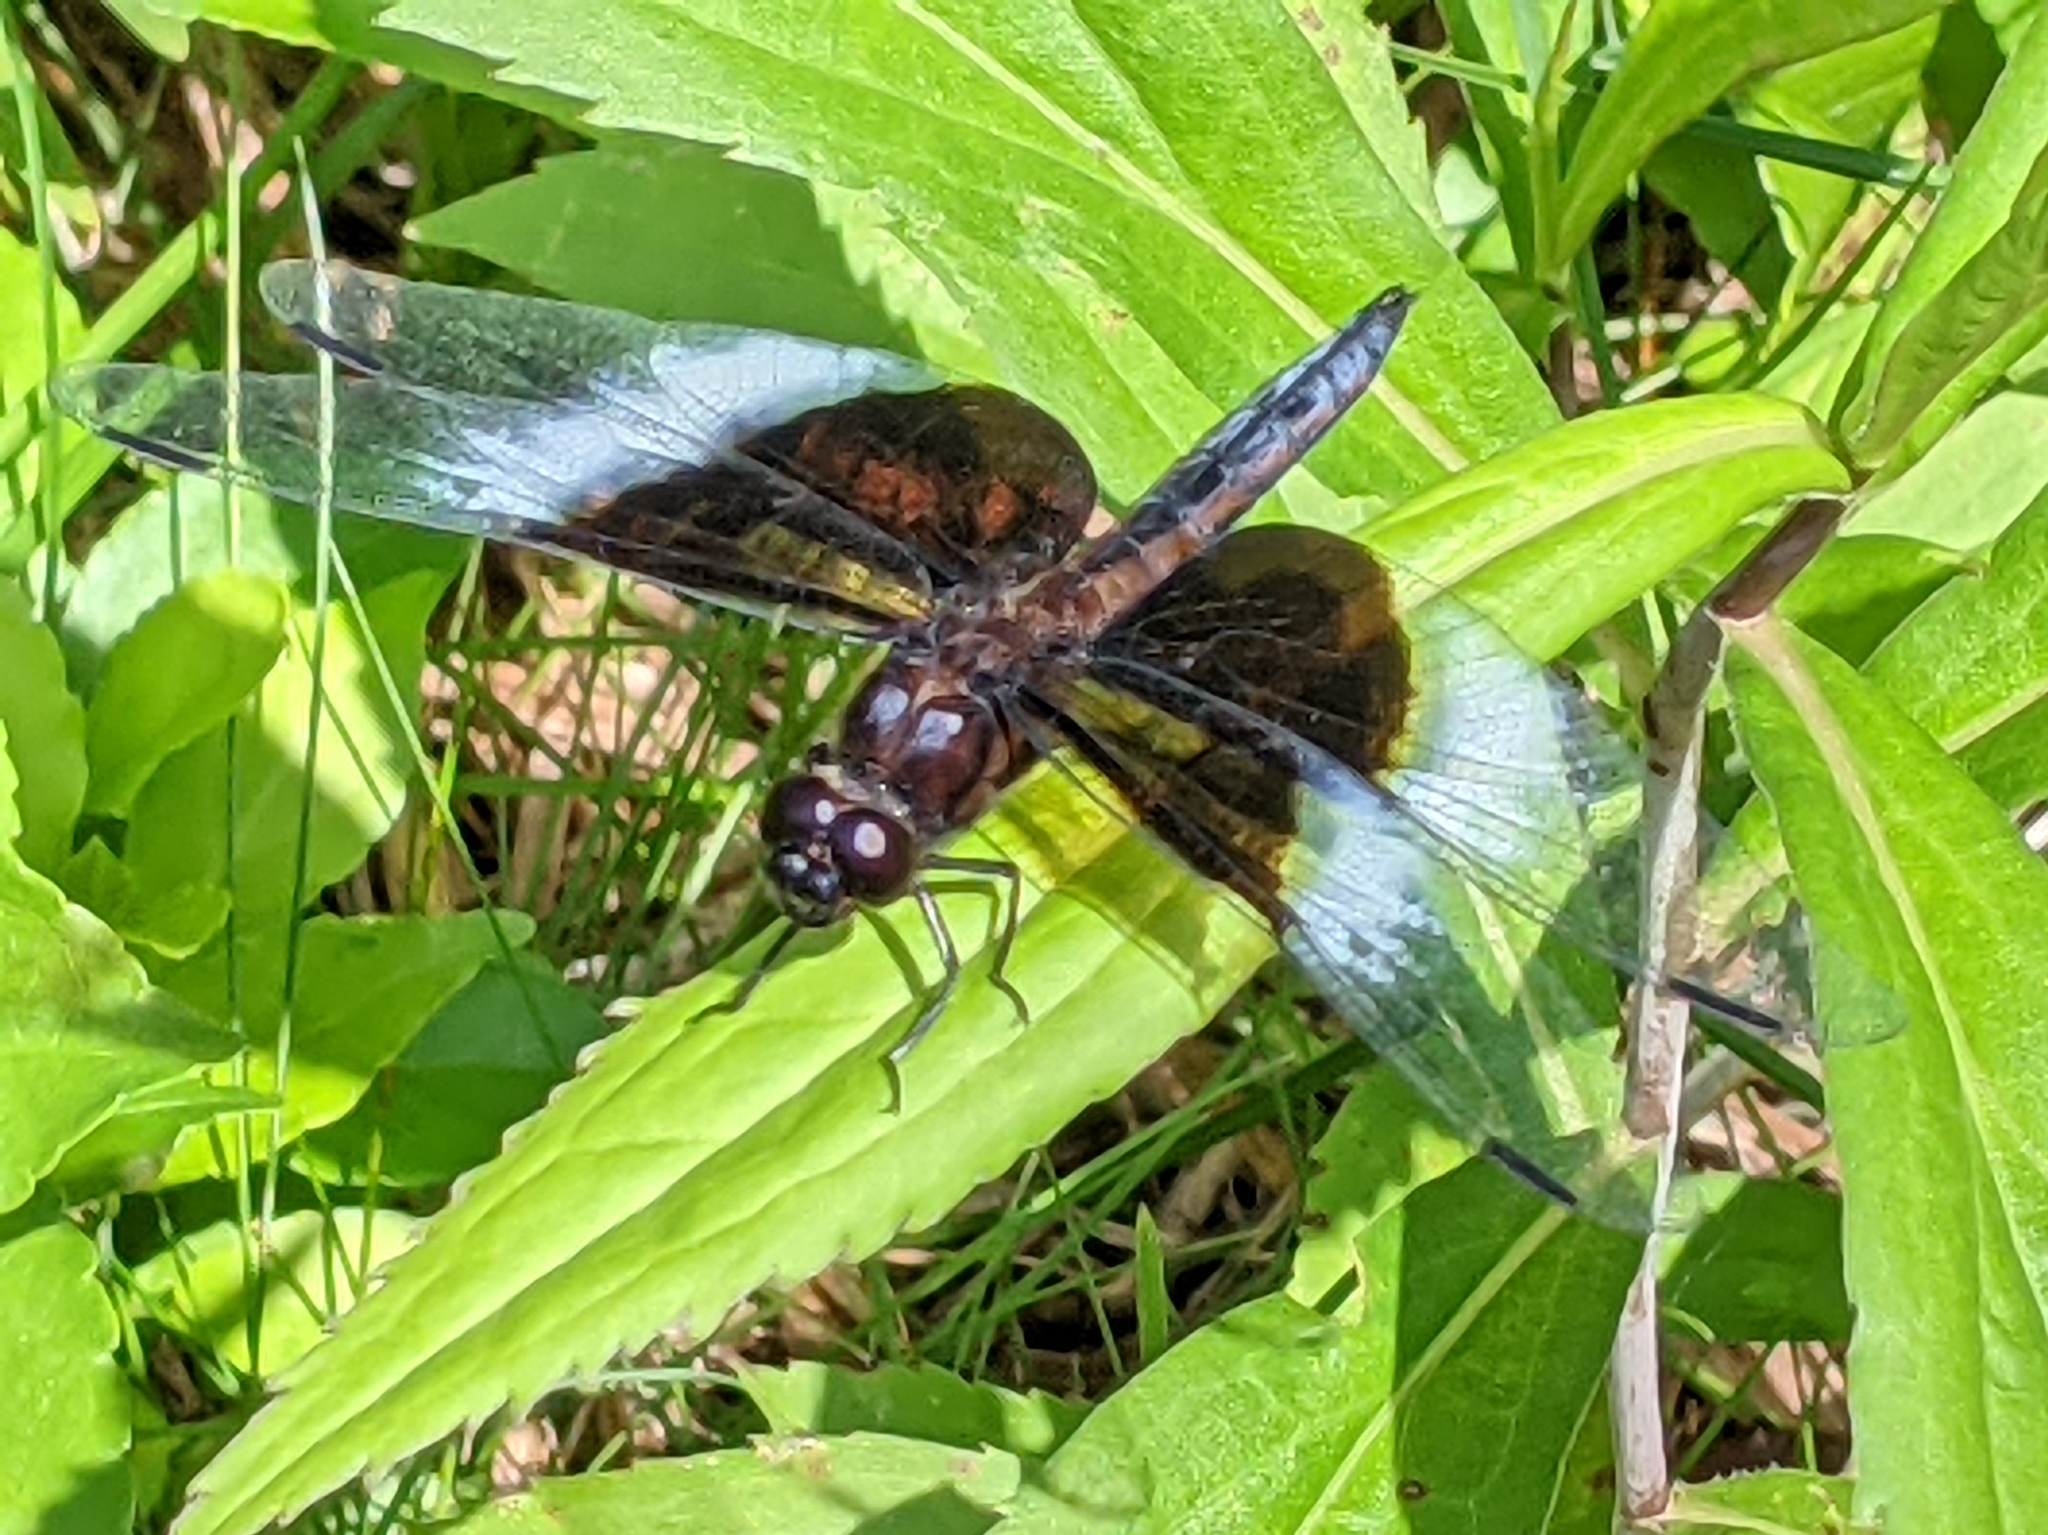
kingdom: Animalia
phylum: Arthropoda
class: Insecta
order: Odonata
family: Libellulidae
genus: Libellula
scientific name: Libellula luctuosa
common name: Widow skimmer
